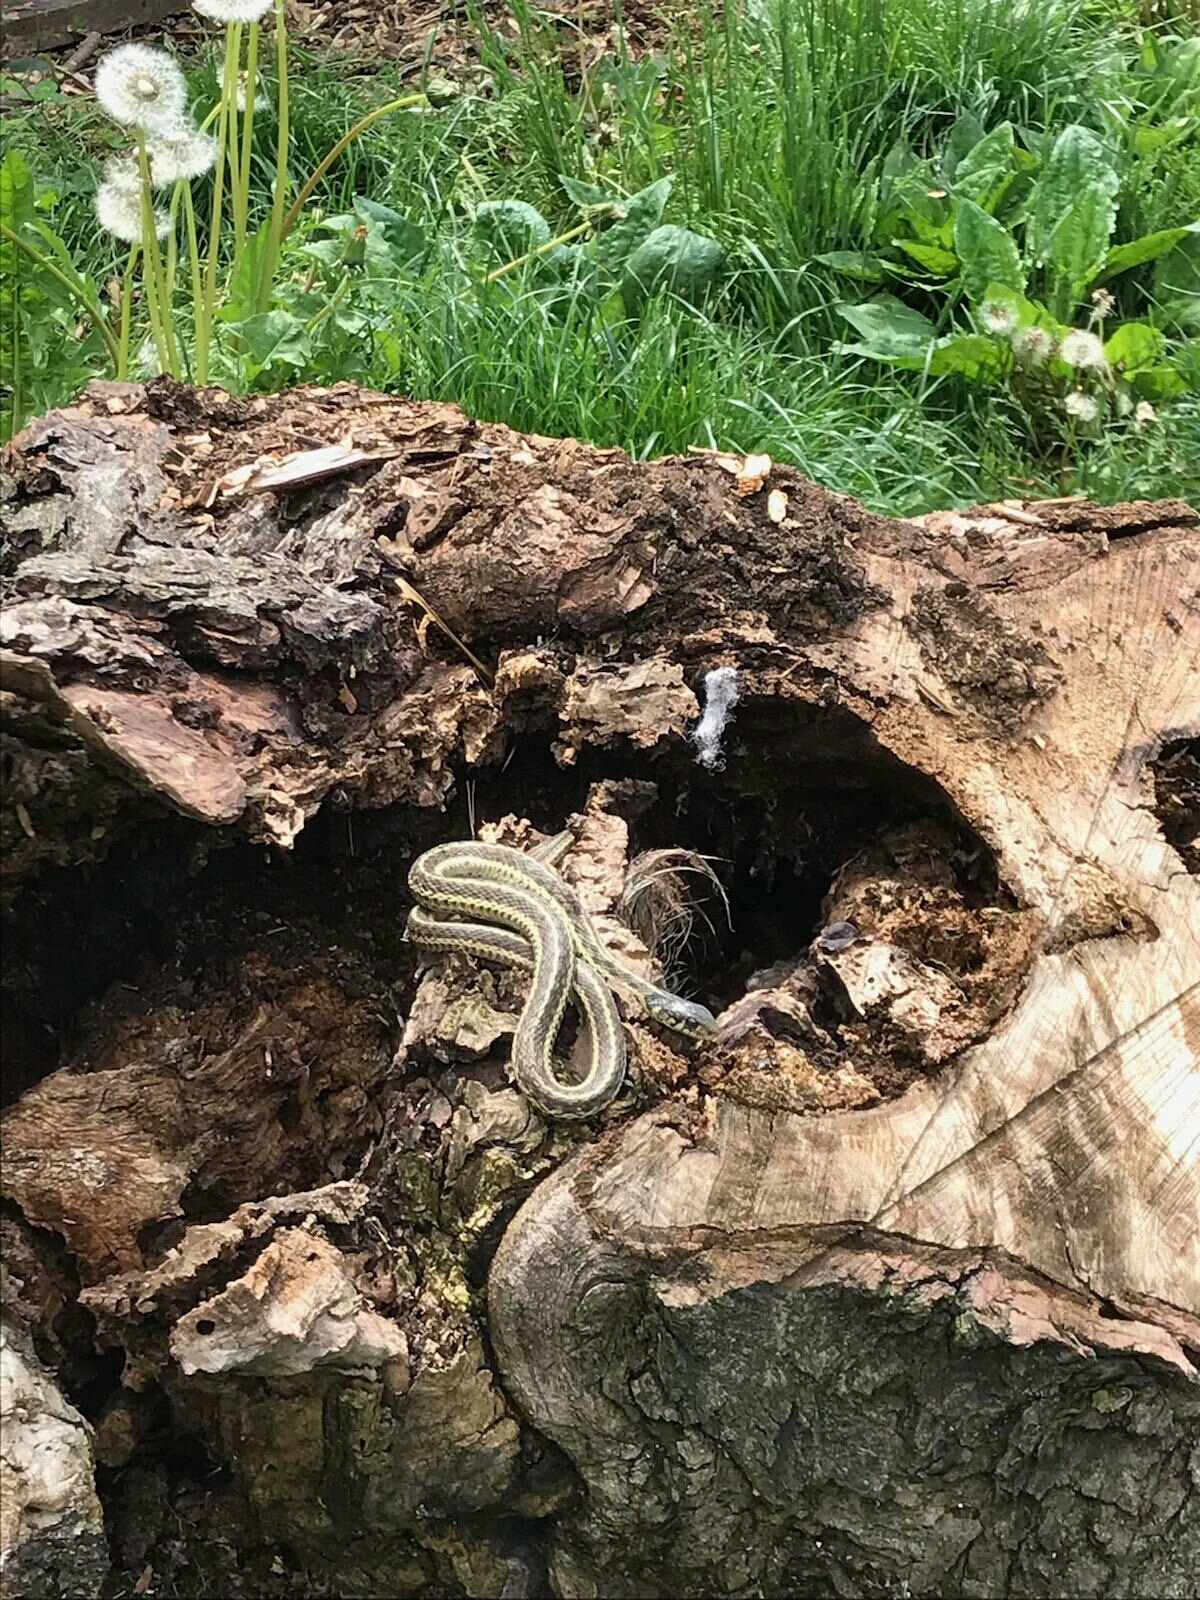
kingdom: Animalia
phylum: Chordata
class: Squamata
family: Colubridae
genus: Thamnophis
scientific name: Thamnophis sirtalis
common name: Common garter snake
